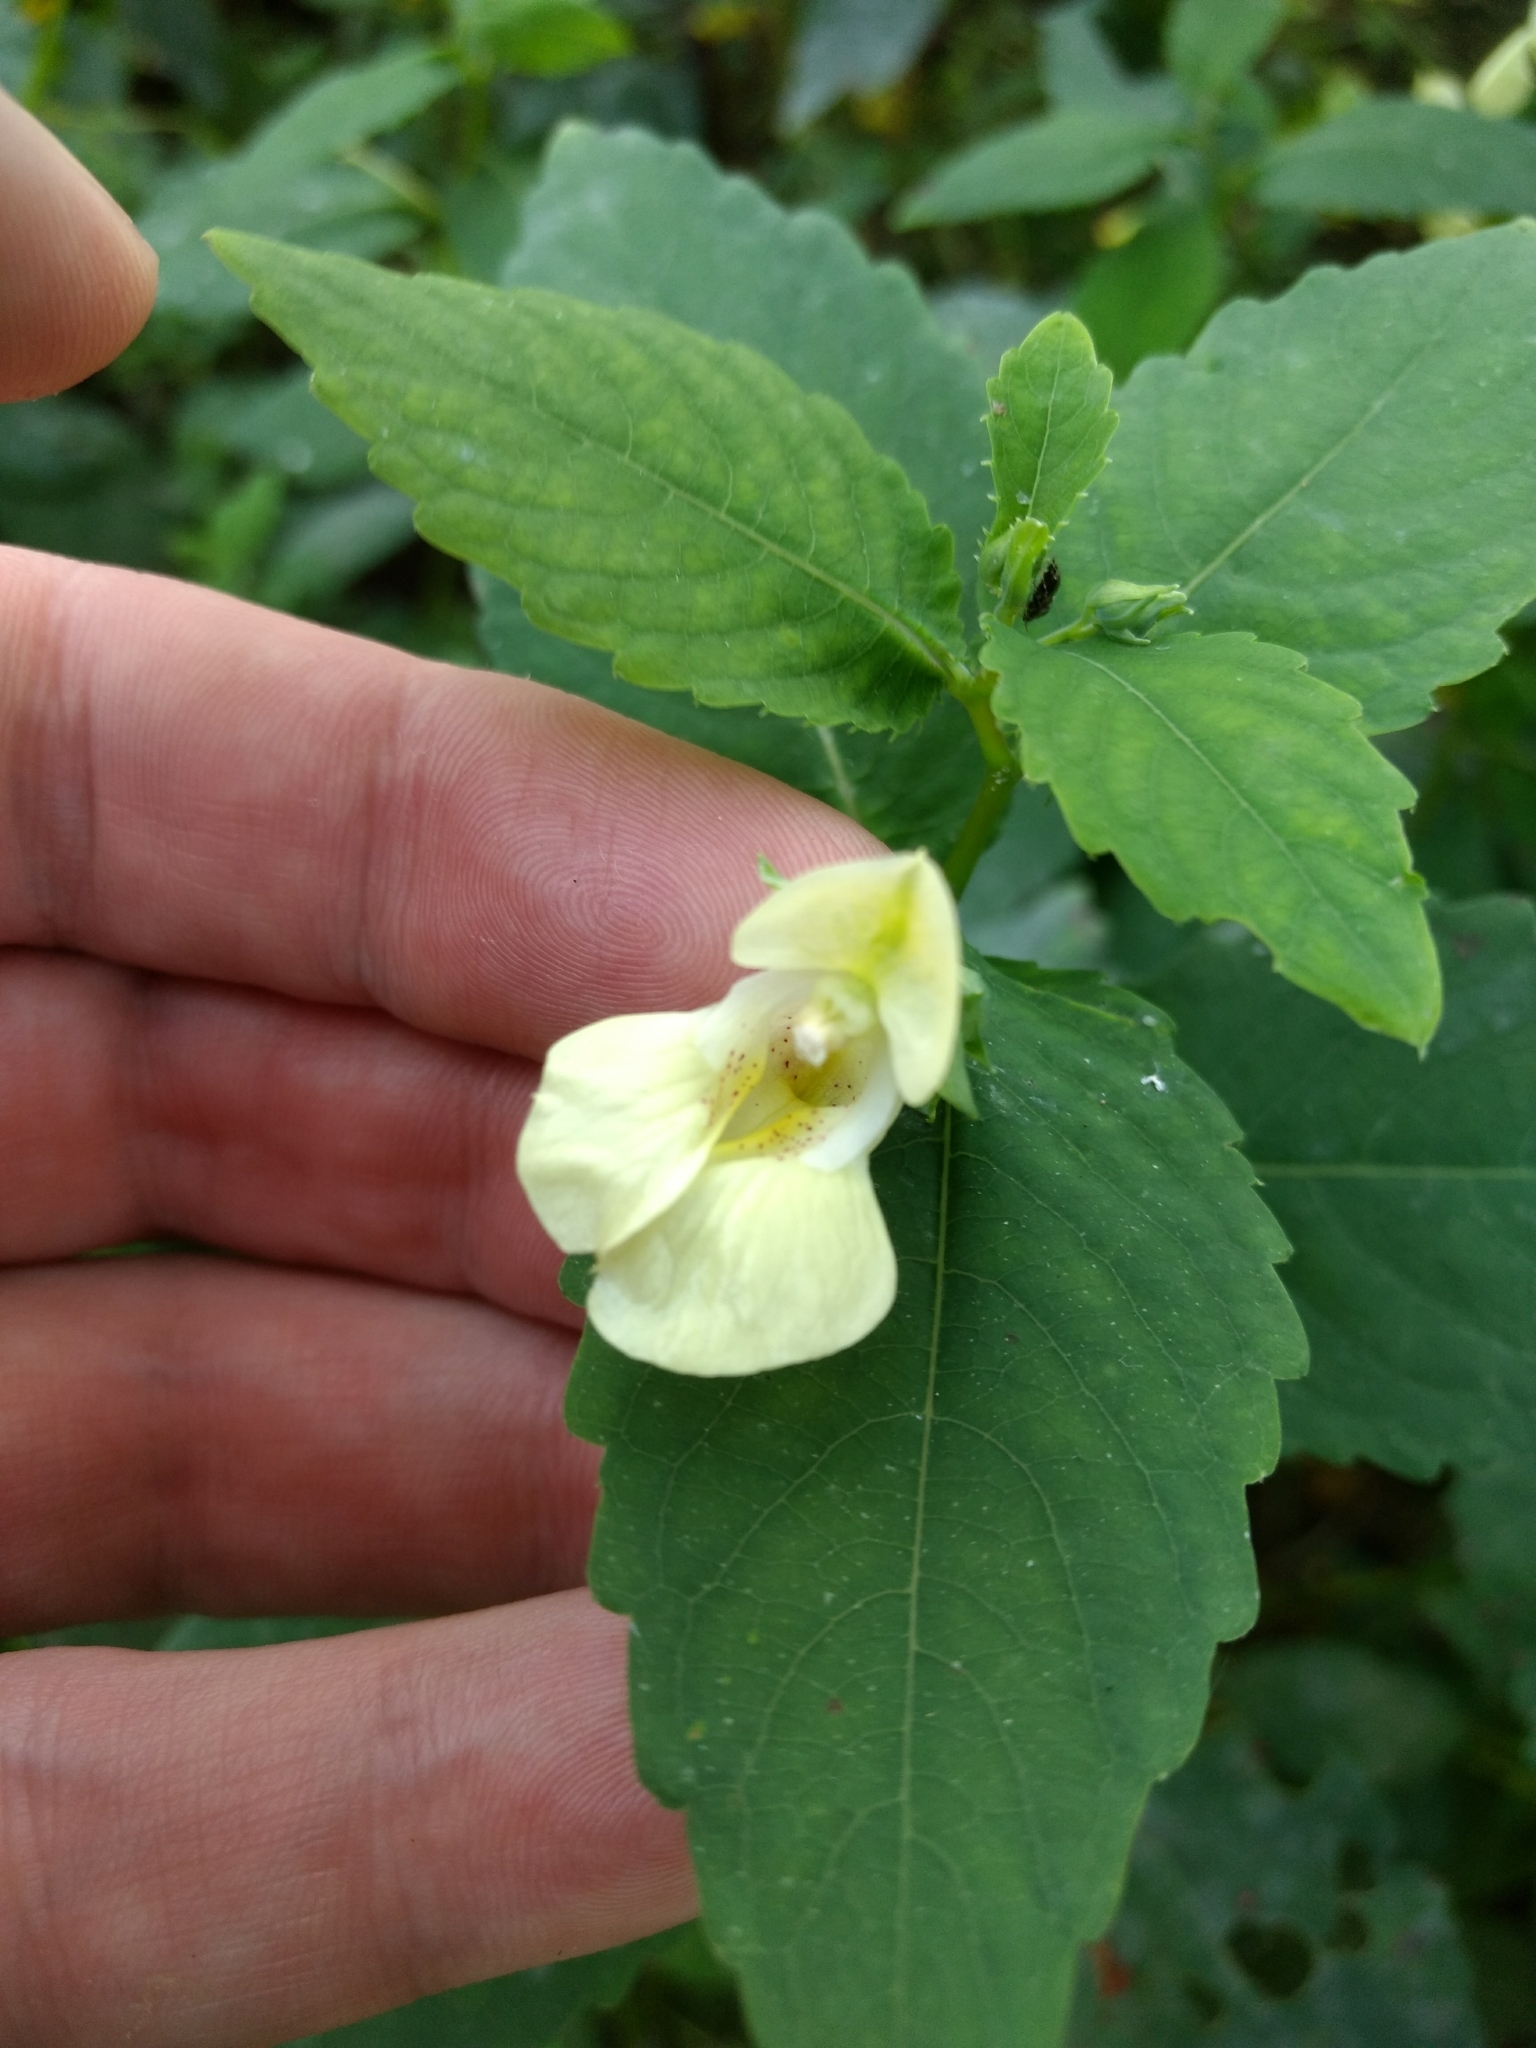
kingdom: Plantae
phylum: Tracheophyta
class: Magnoliopsida
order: Ericales
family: Balsaminaceae
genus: Impatiens
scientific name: Impatiens pallida
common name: Pale snapweed
